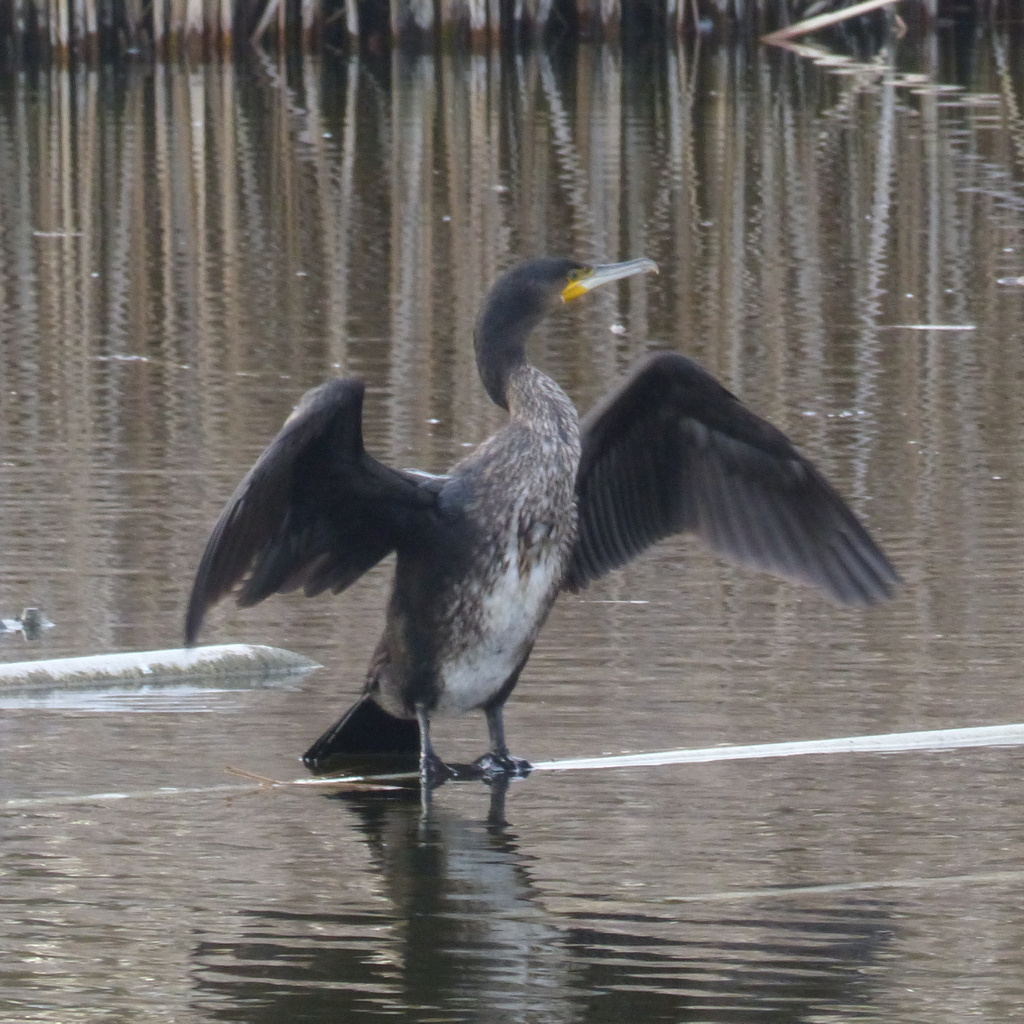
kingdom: Animalia
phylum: Chordata
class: Aves
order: Suliformes
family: Phalacrocoracidae
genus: Phalacrocorax
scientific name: Phalacrocorax carbo
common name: Great cormorant
